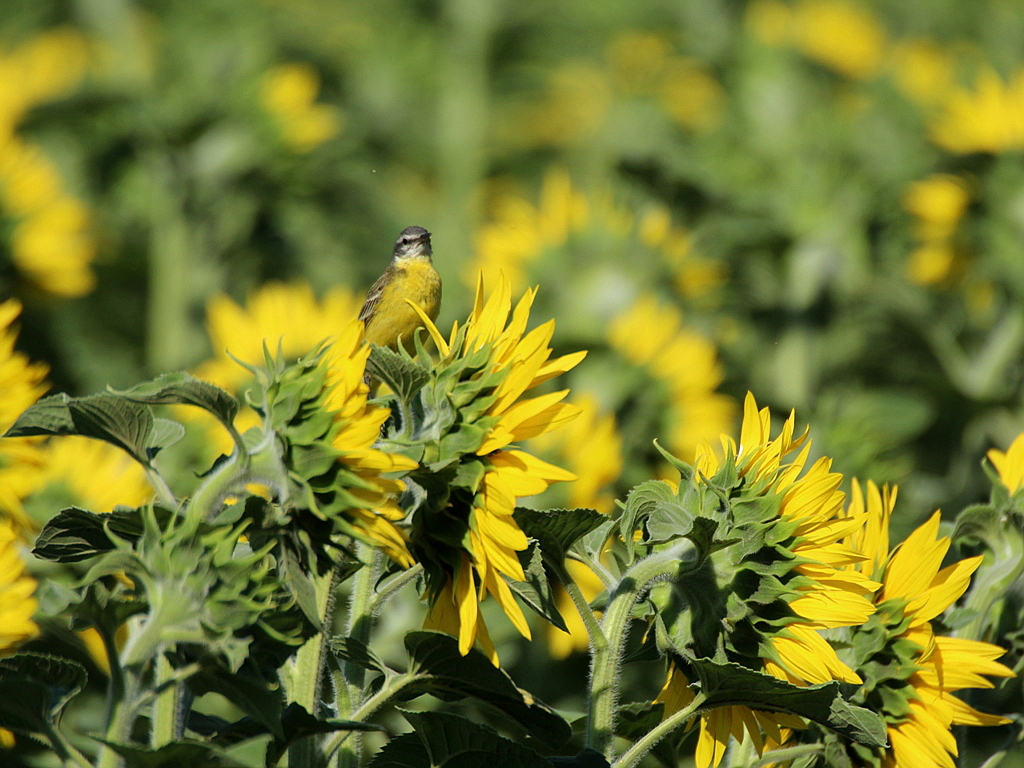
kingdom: Animalia
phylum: Chordata
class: Aves
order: Passeriformes
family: Motacillidae
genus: Motacilla
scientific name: Motacilla flava
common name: Western yellow wagtail
